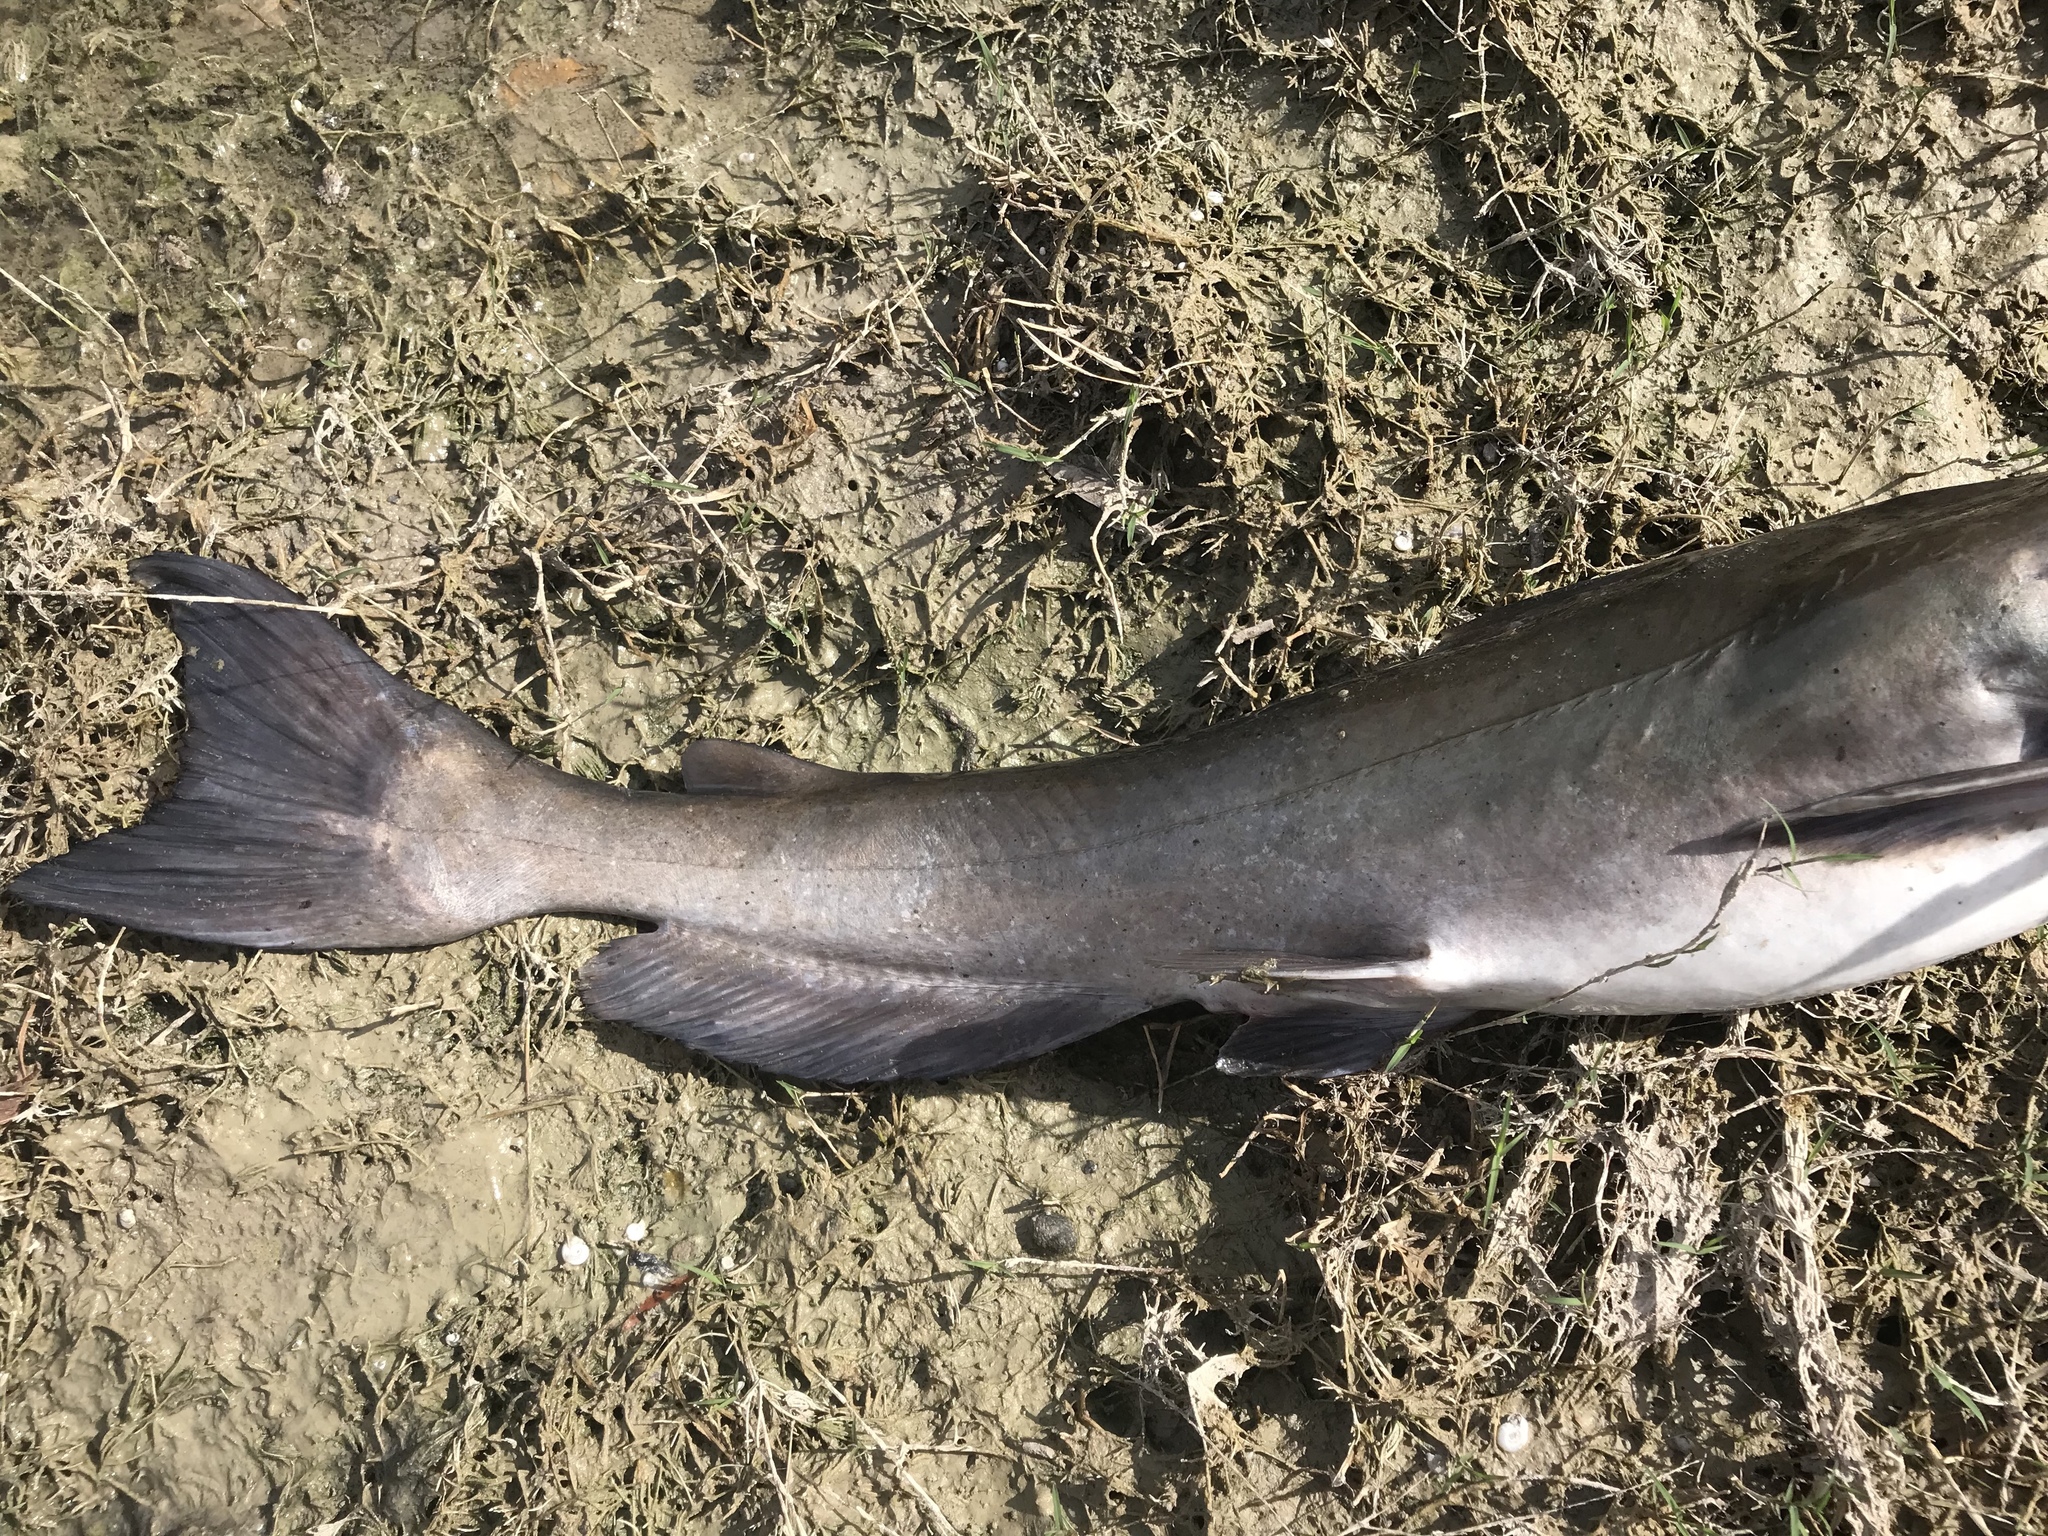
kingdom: Animalia
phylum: Chordata
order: Siluriformes
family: Ictaluridae
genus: Ictalurus
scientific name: Ictalurus punctatus
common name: Channel catfish
